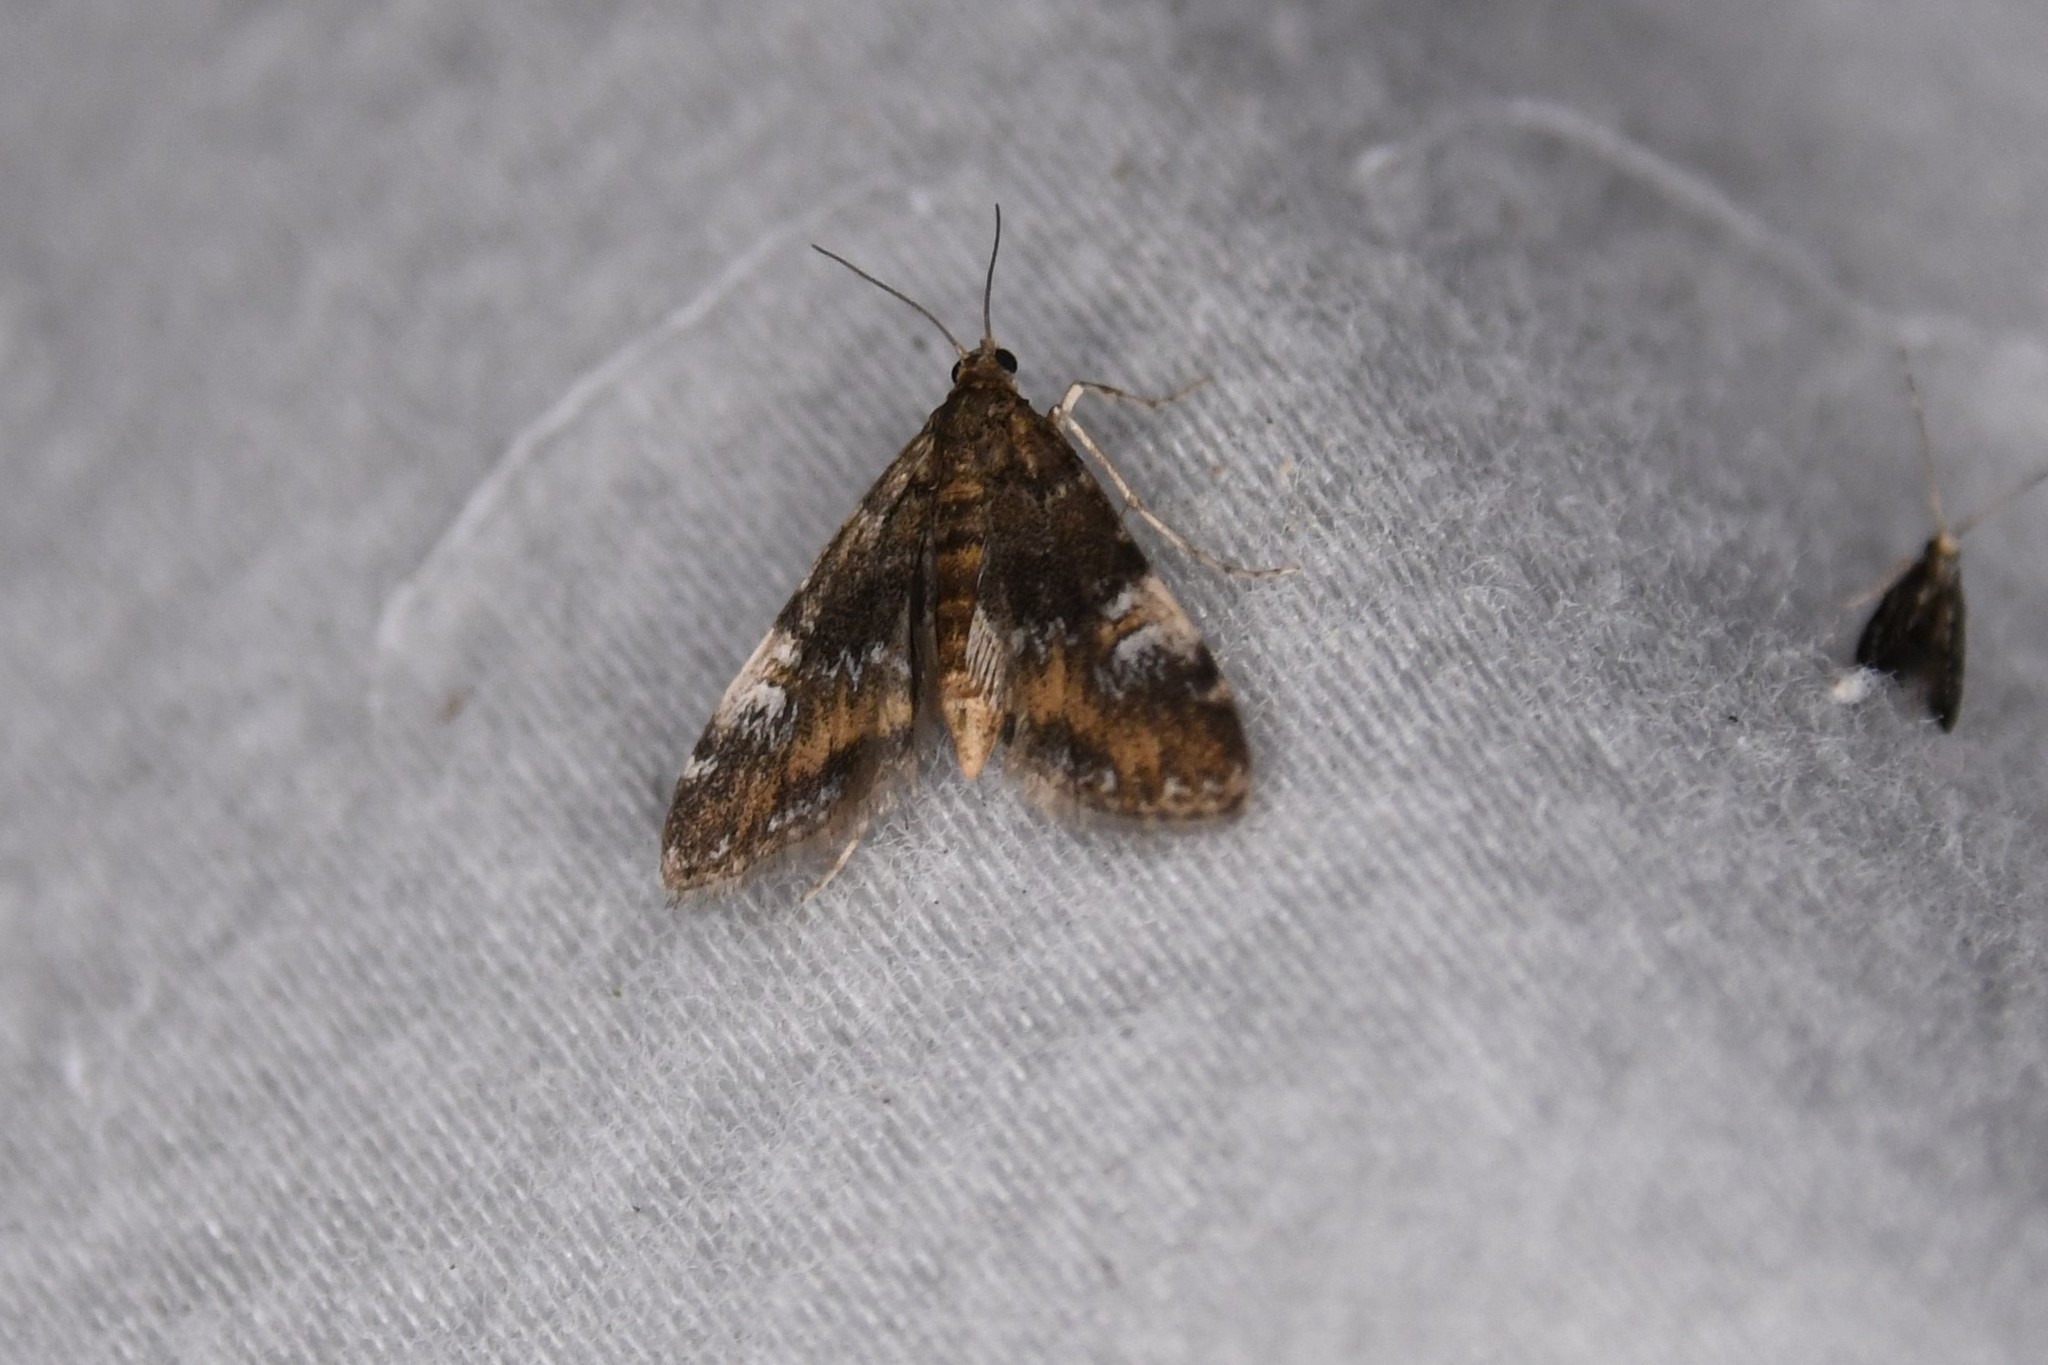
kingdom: Animalia
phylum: Arthropoda
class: Insecta
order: Lepidoptera
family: Crambidae
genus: Elophila
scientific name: Elophila obliteralis
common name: Waterlily leafcutter moth
